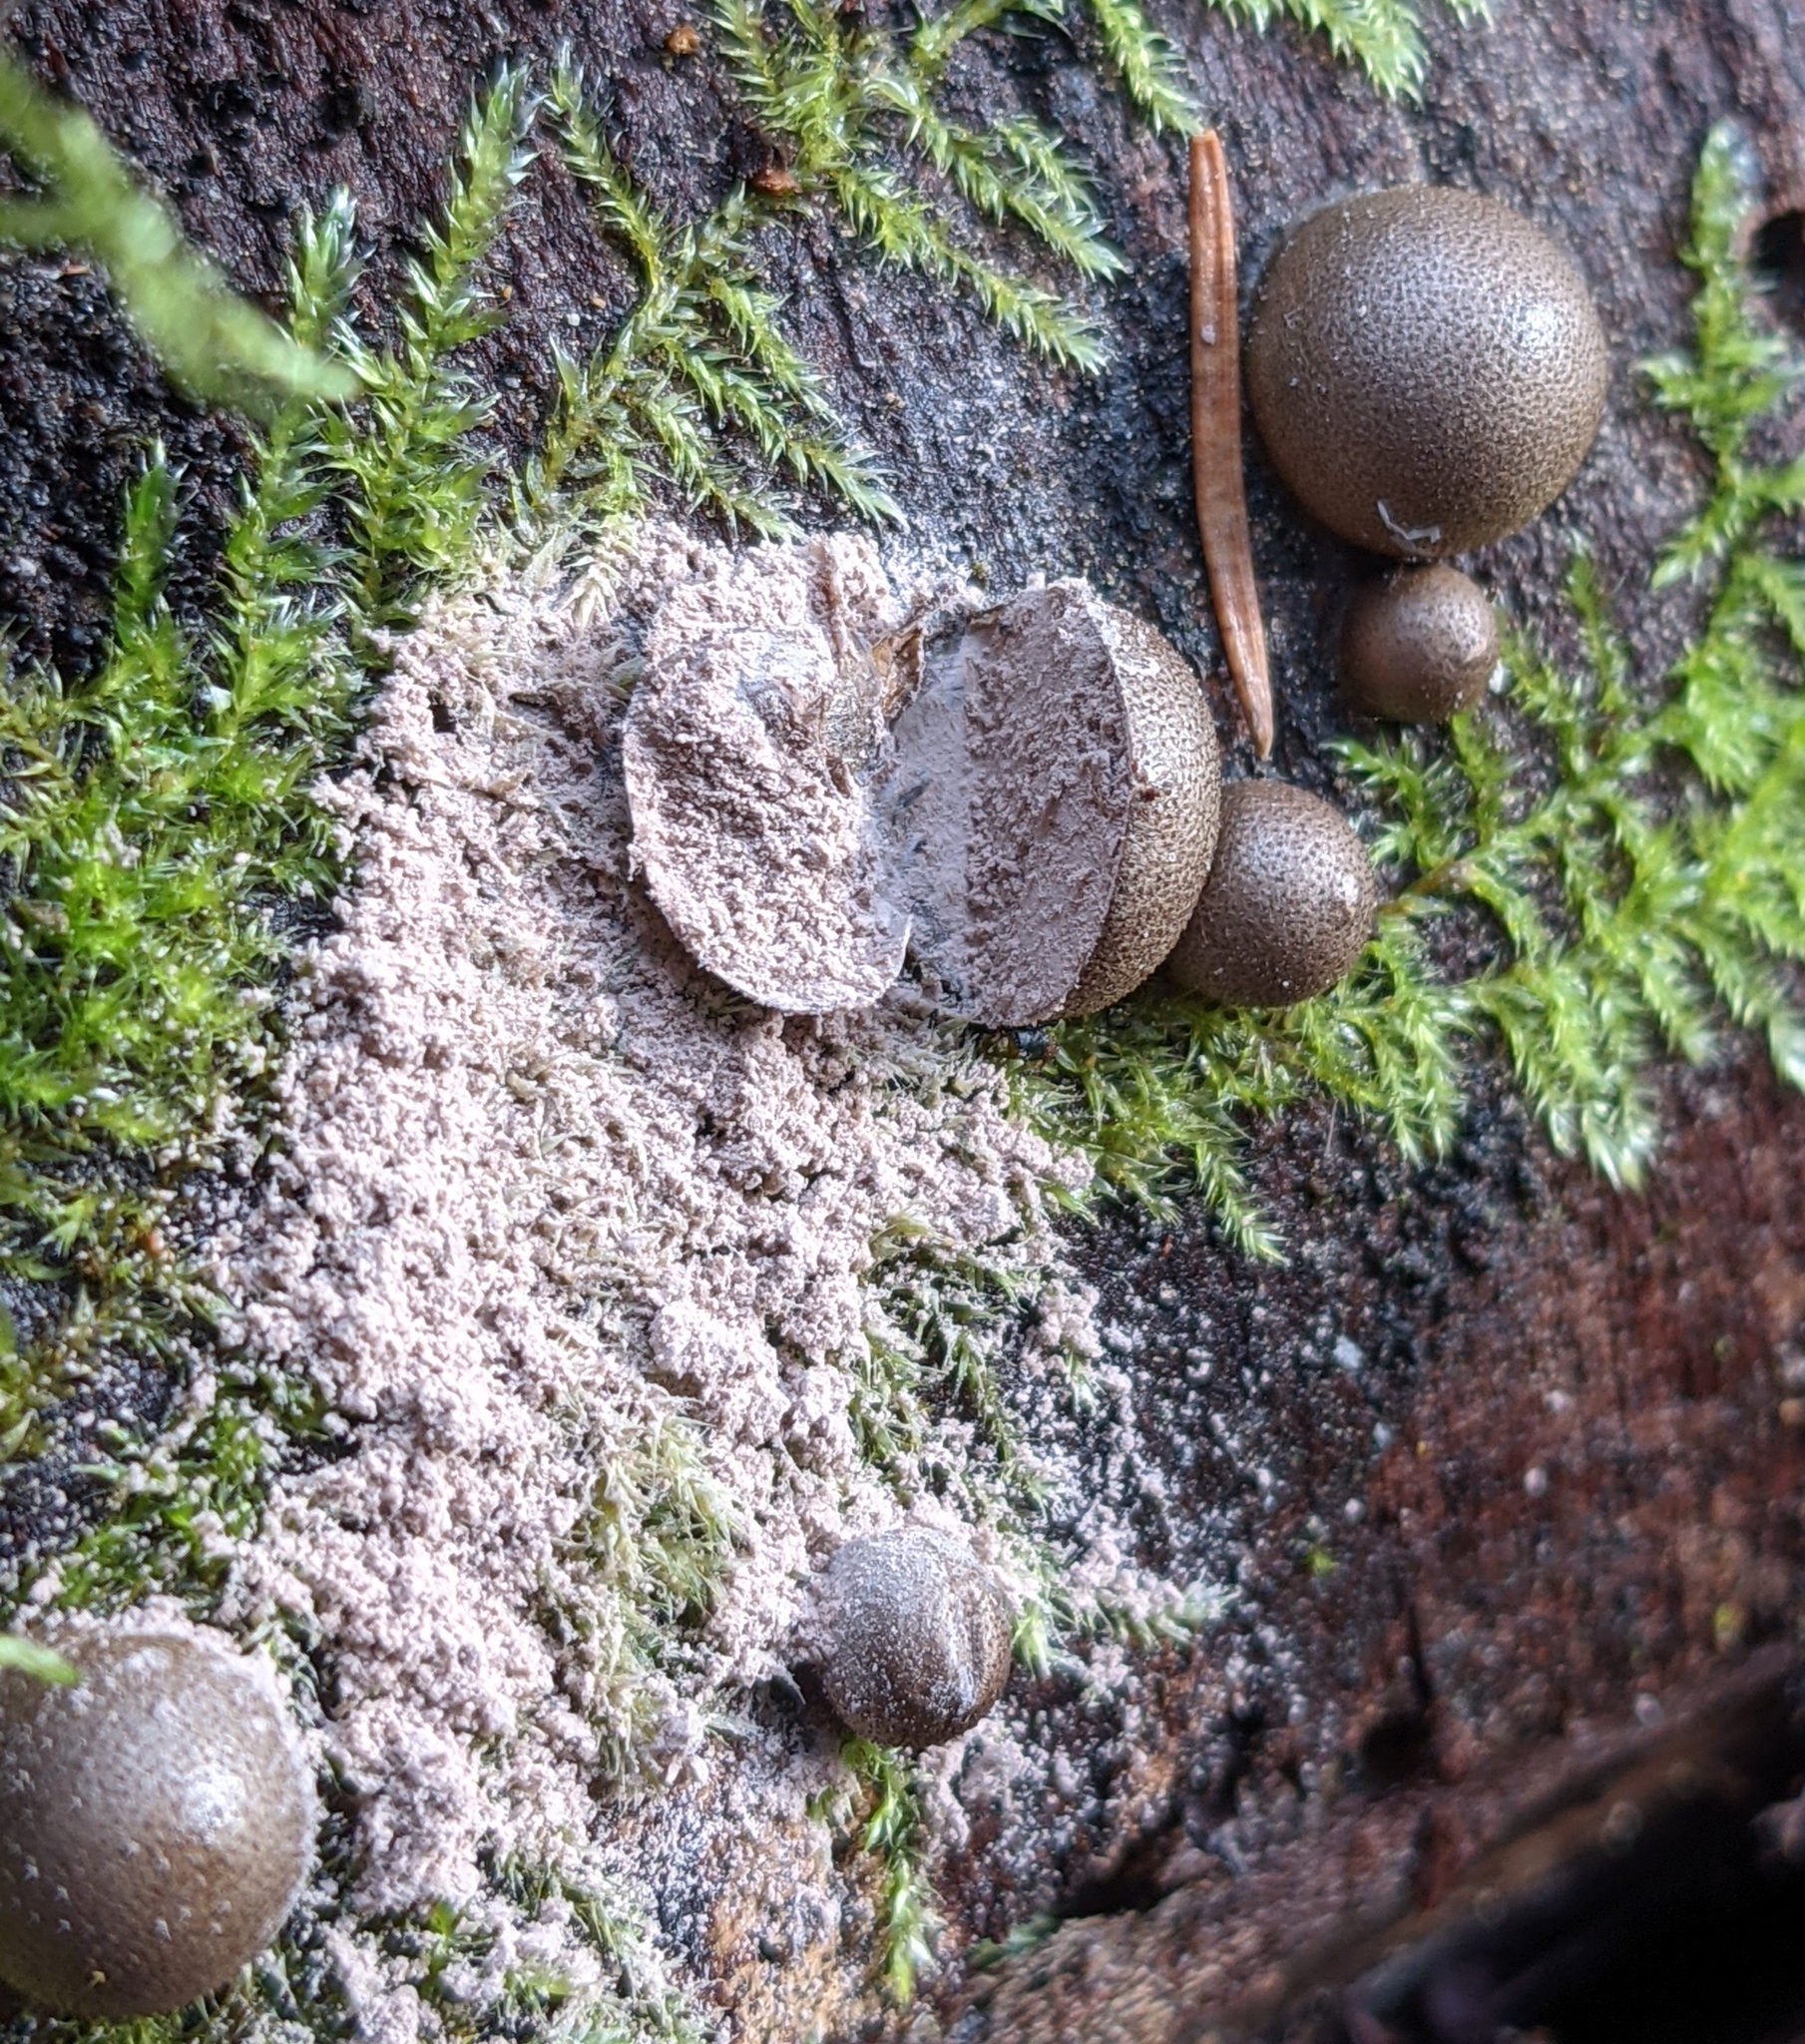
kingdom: Protozoa
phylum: Mycetozoa
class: Myxomycetes
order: Cribrariales
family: Tubiferaceae
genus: Lycogala
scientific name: Lycogala epidendrum
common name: Wolf's milk
